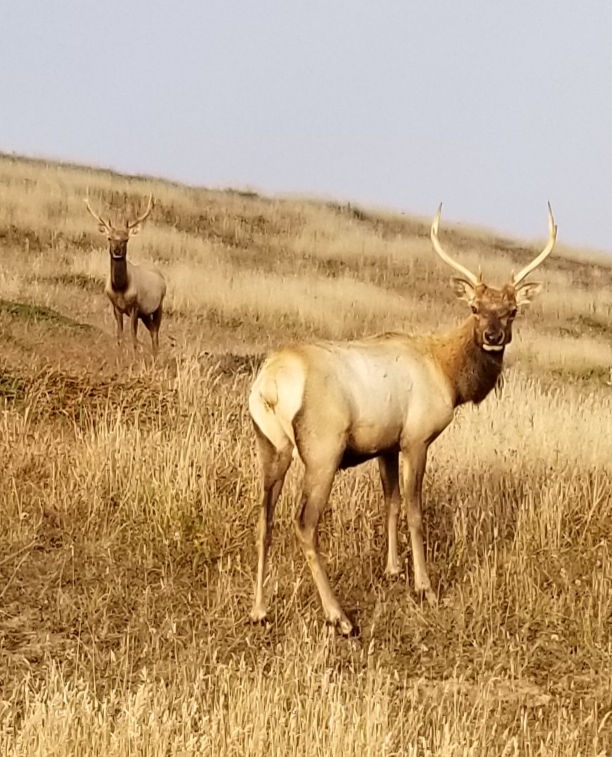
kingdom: Animalia
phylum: Chordata
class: Mammalia
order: Artiodactyla
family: Cervidae
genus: Cervus
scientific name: Cervus elaphus
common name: Red deer
